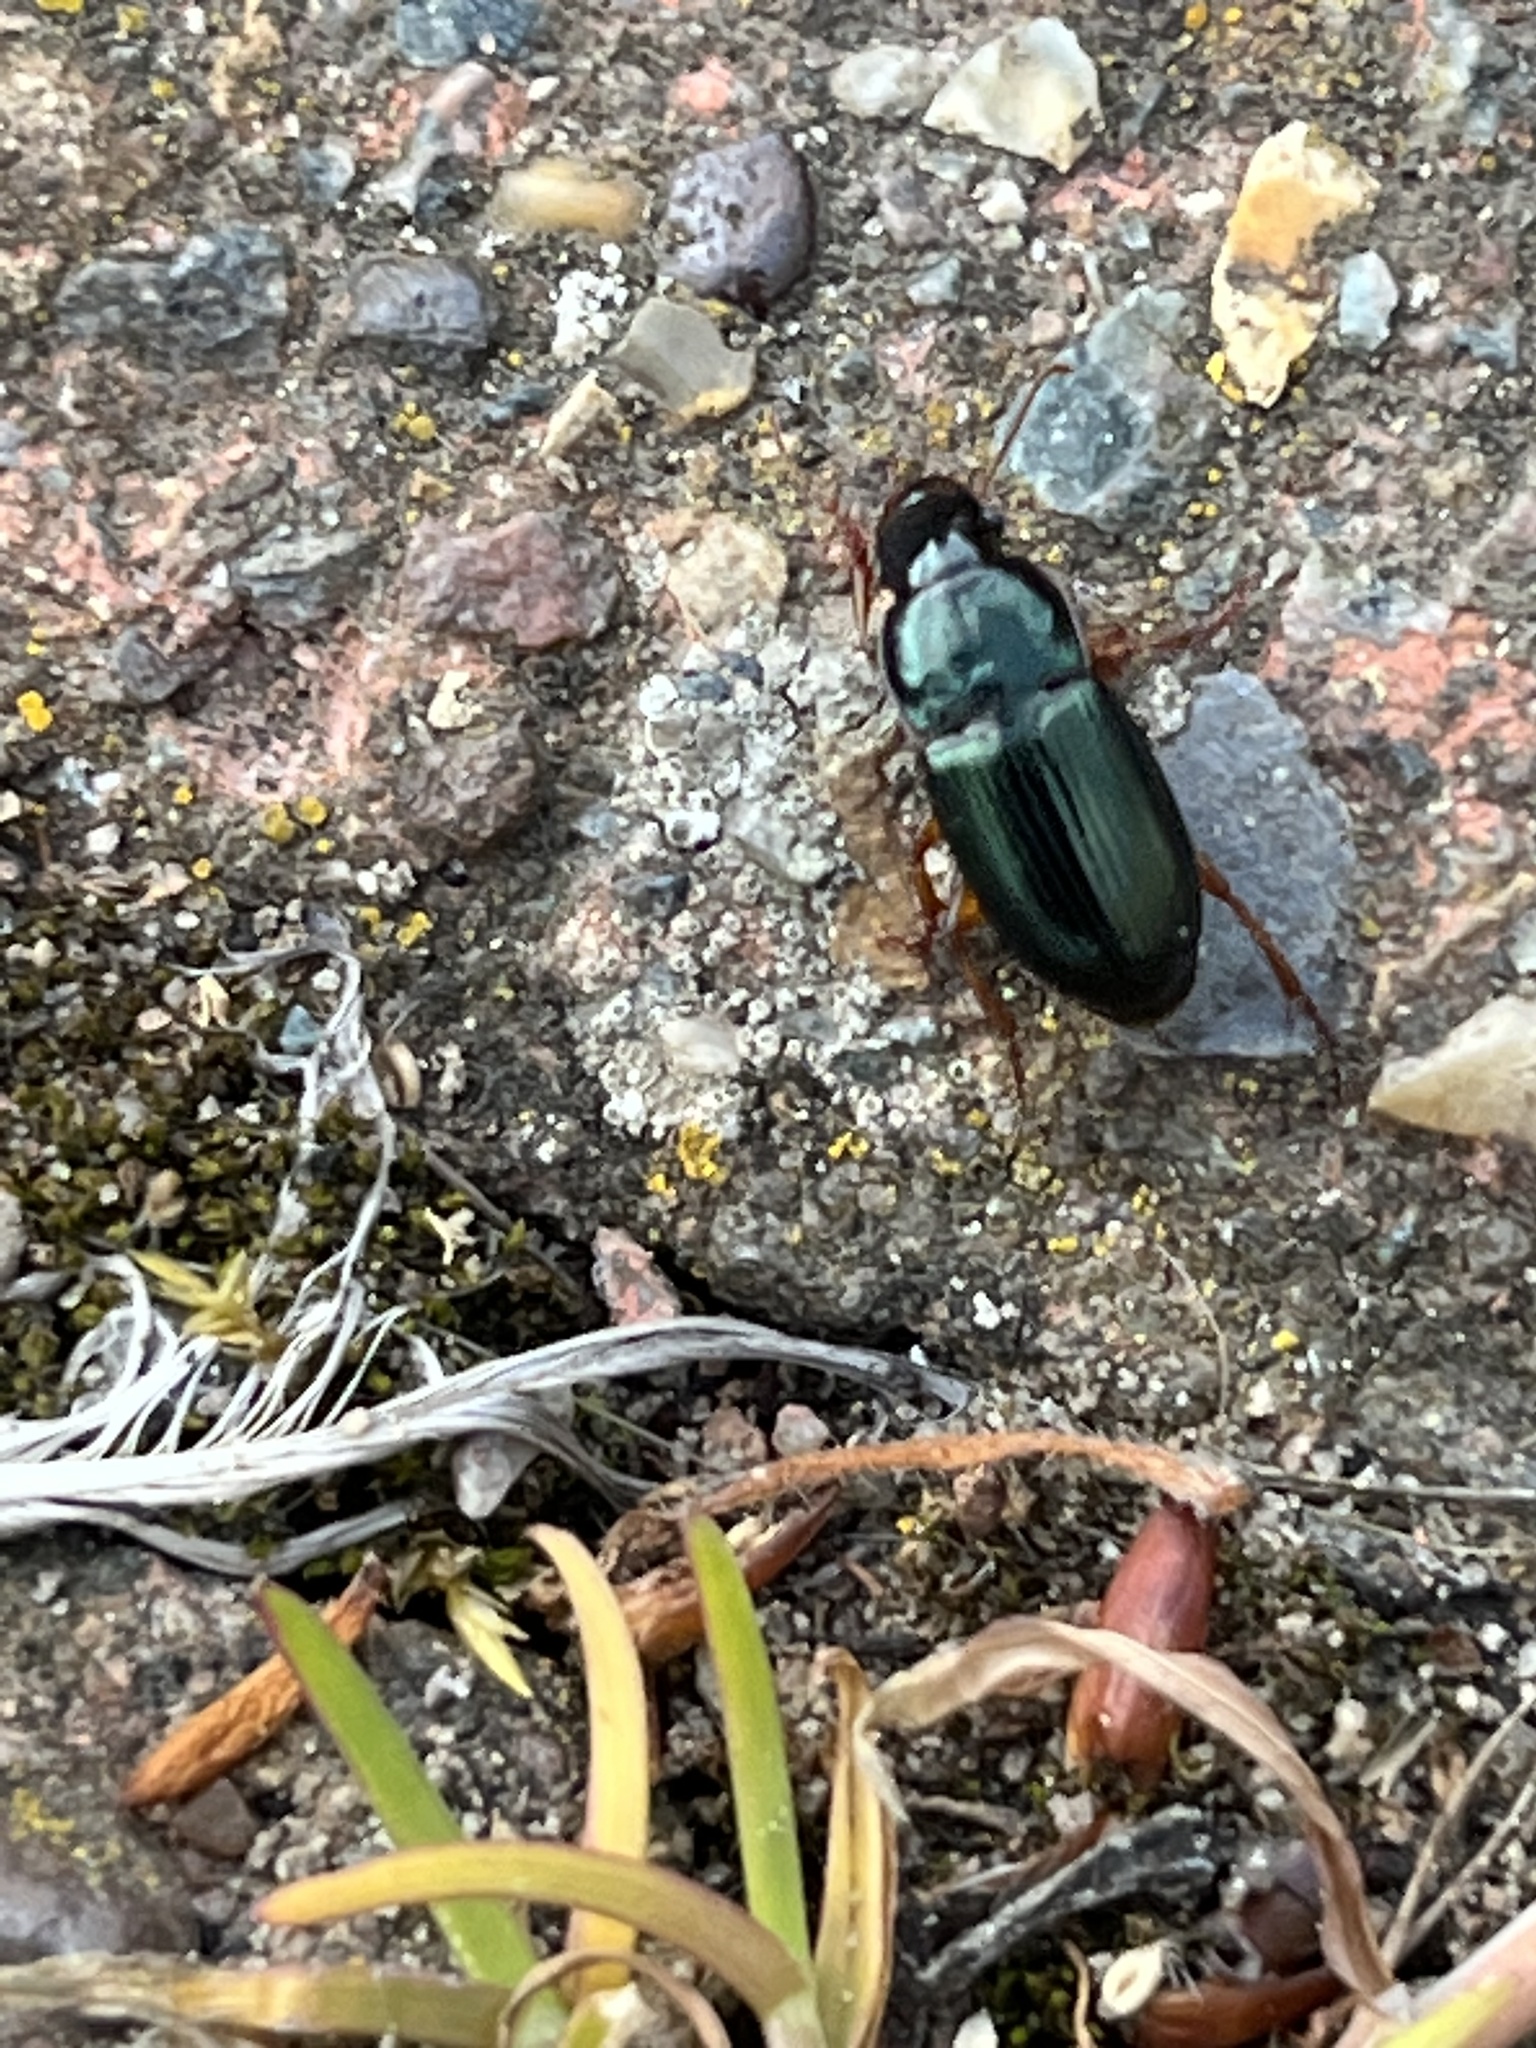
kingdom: Animalia
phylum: Arthropoda
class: Insecta
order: Coleoptera
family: Carabidae
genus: Harpalus
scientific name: Harpalus rubripes
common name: Red-legged harp ground beetle
